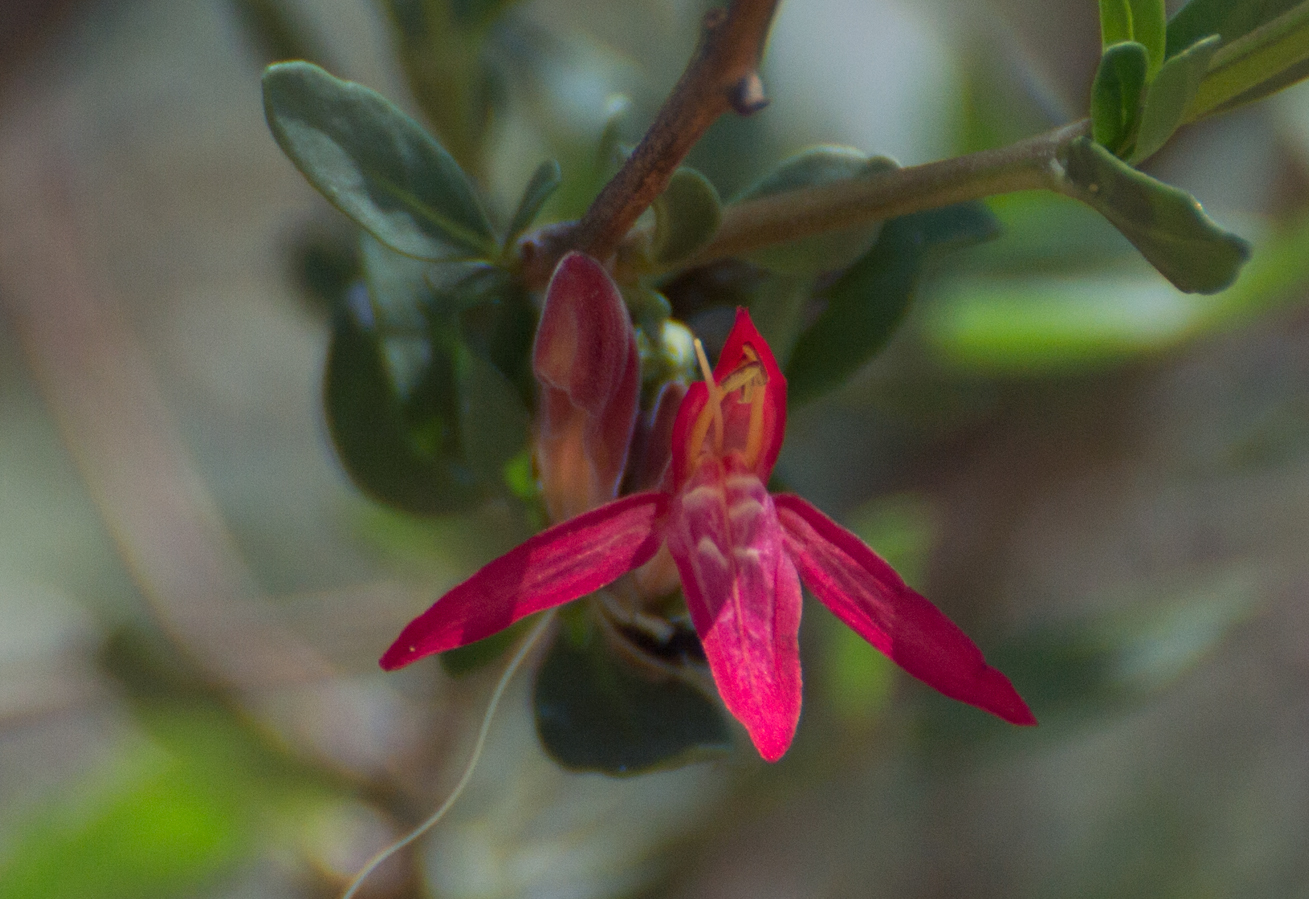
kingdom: Plantae
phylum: Tracheophyta
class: Magnoliopsida
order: Lamiales
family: Acanthaceae
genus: Justicia
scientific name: Justicia xylosteoides
